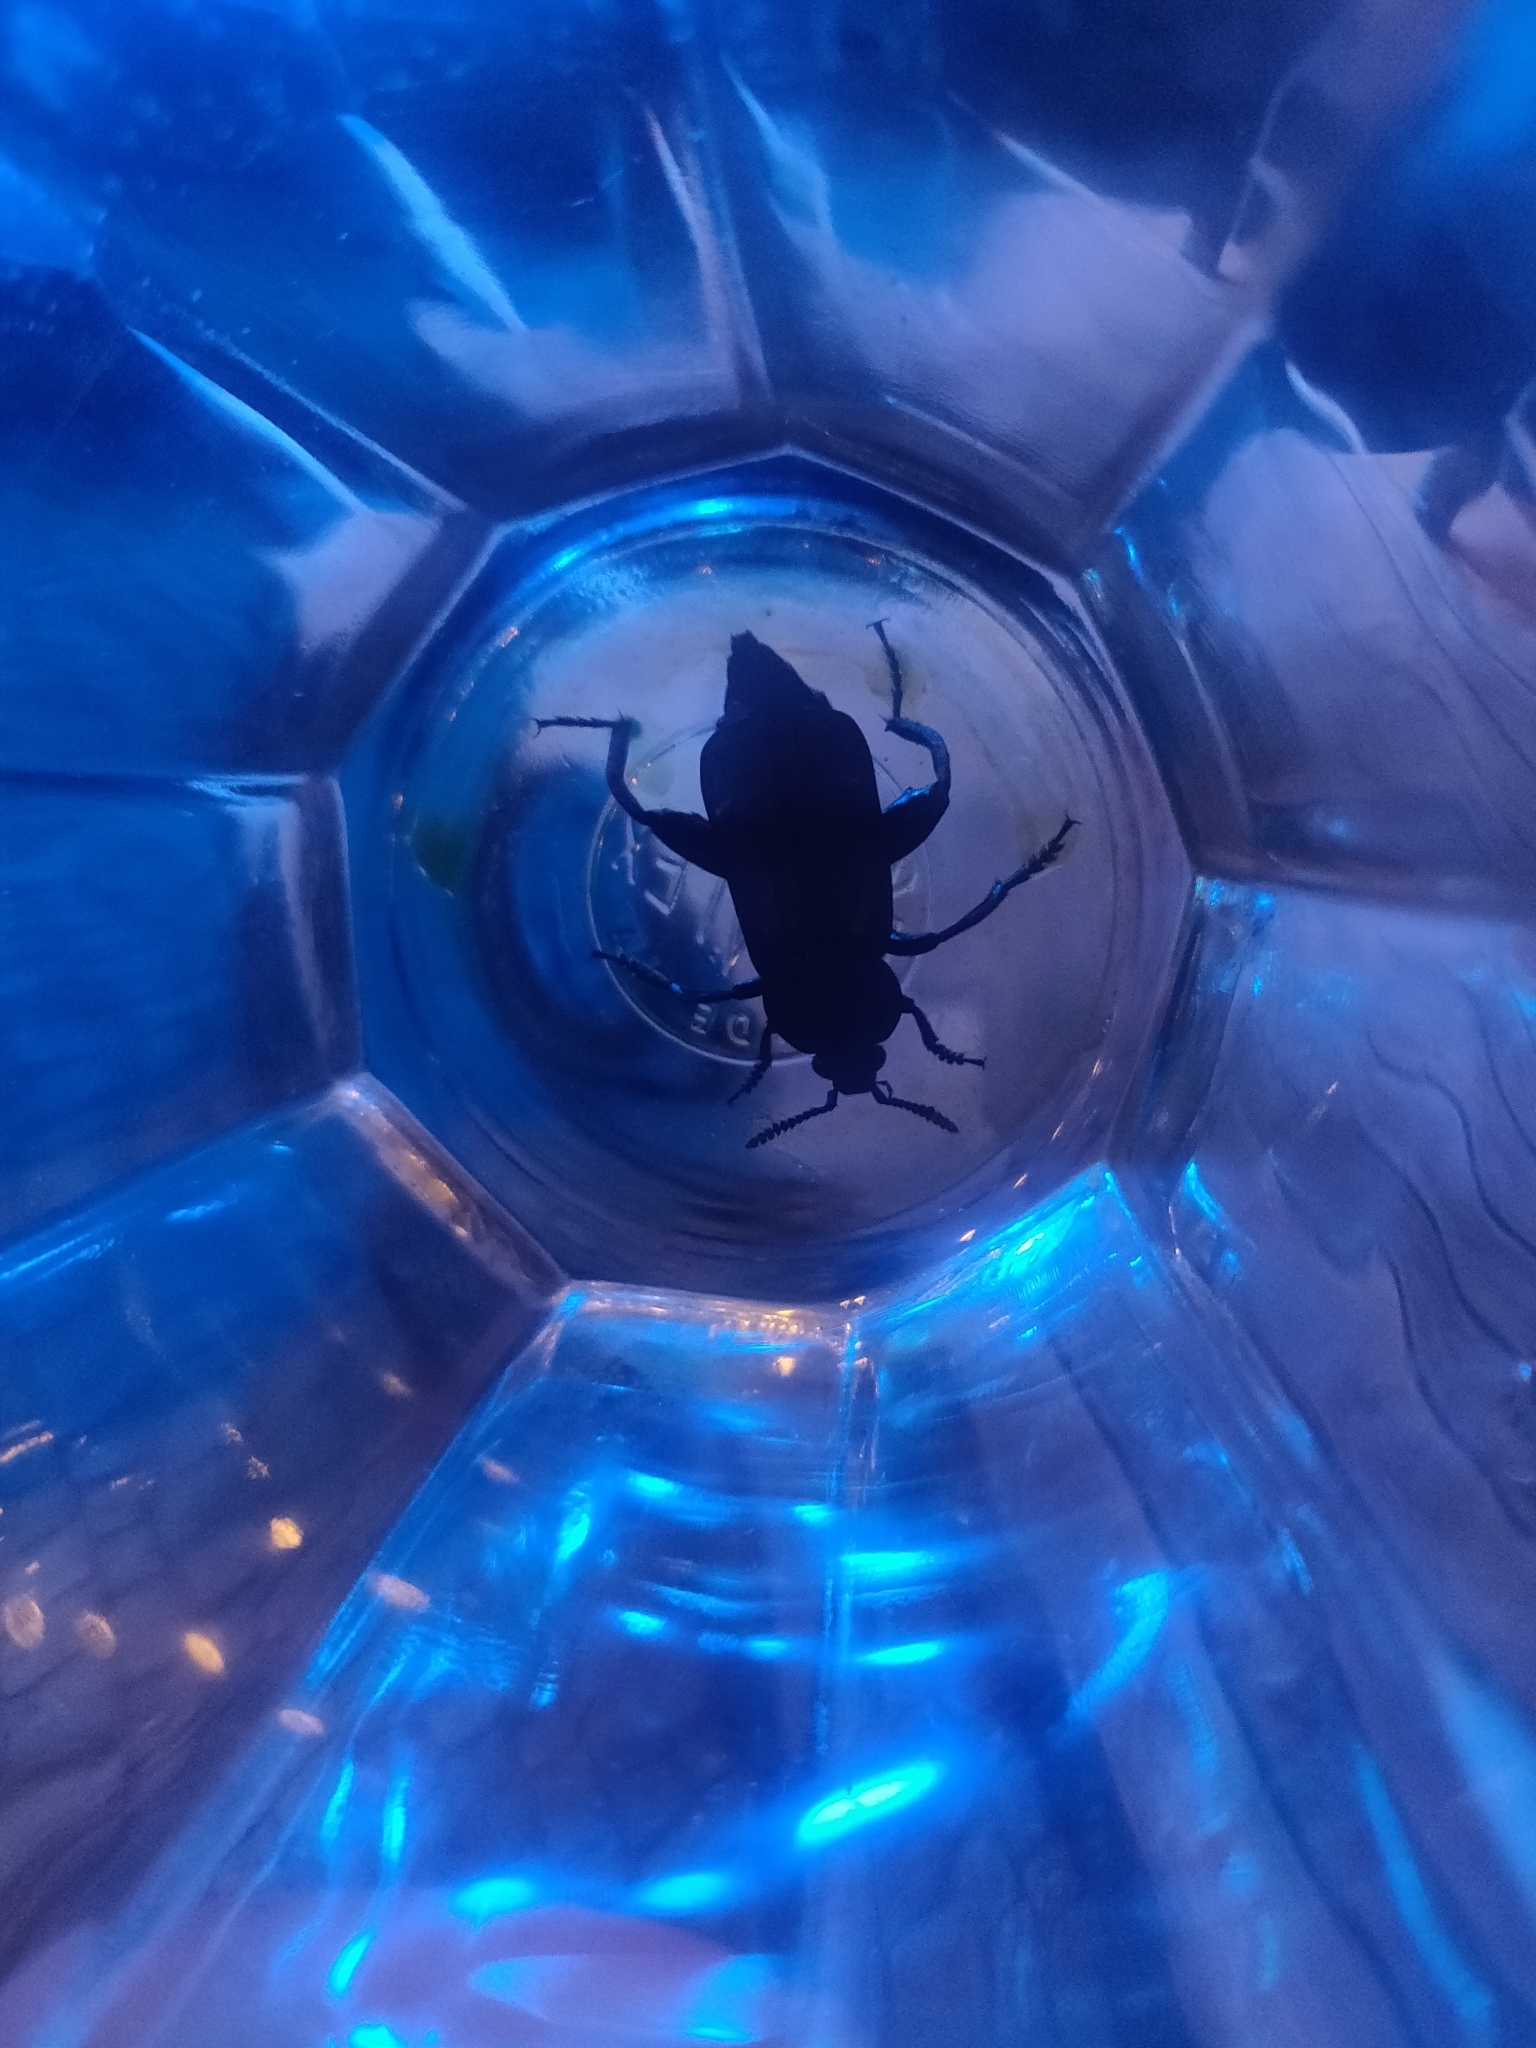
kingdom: Animalia
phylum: Arthropoda
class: Insecta
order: Coleoptera
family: Staphylinidae
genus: Necrodes
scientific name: Necrodes littoralis
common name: Shore sexton beetle
